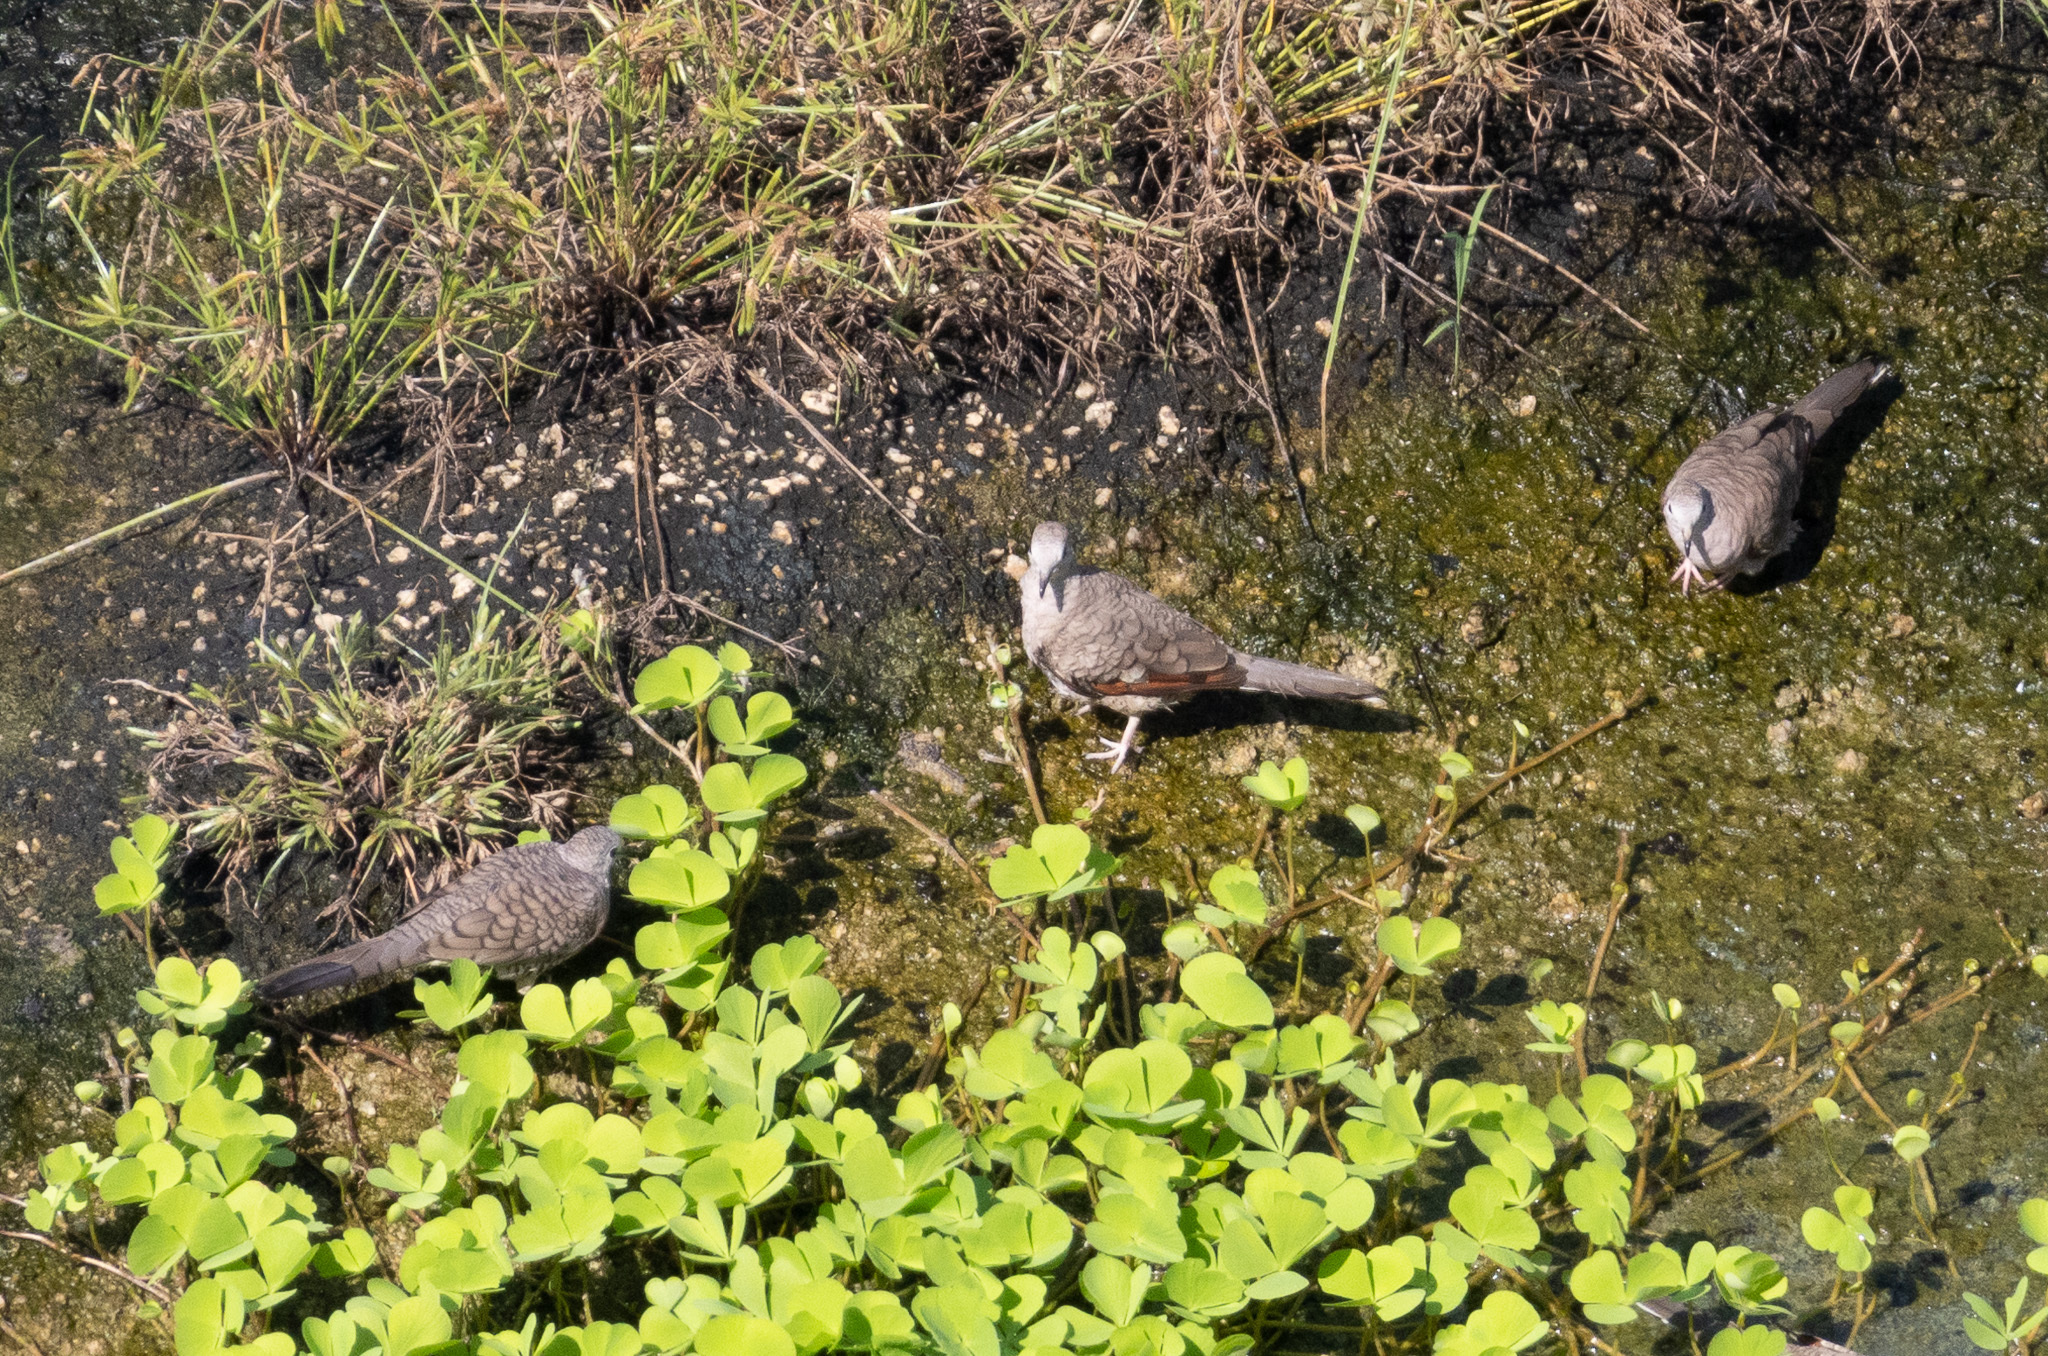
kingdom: Animalia
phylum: Chordata
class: Aves
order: Columbiformes
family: Columbidae
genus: Columbina
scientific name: Columbina inca
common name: Inca dove
